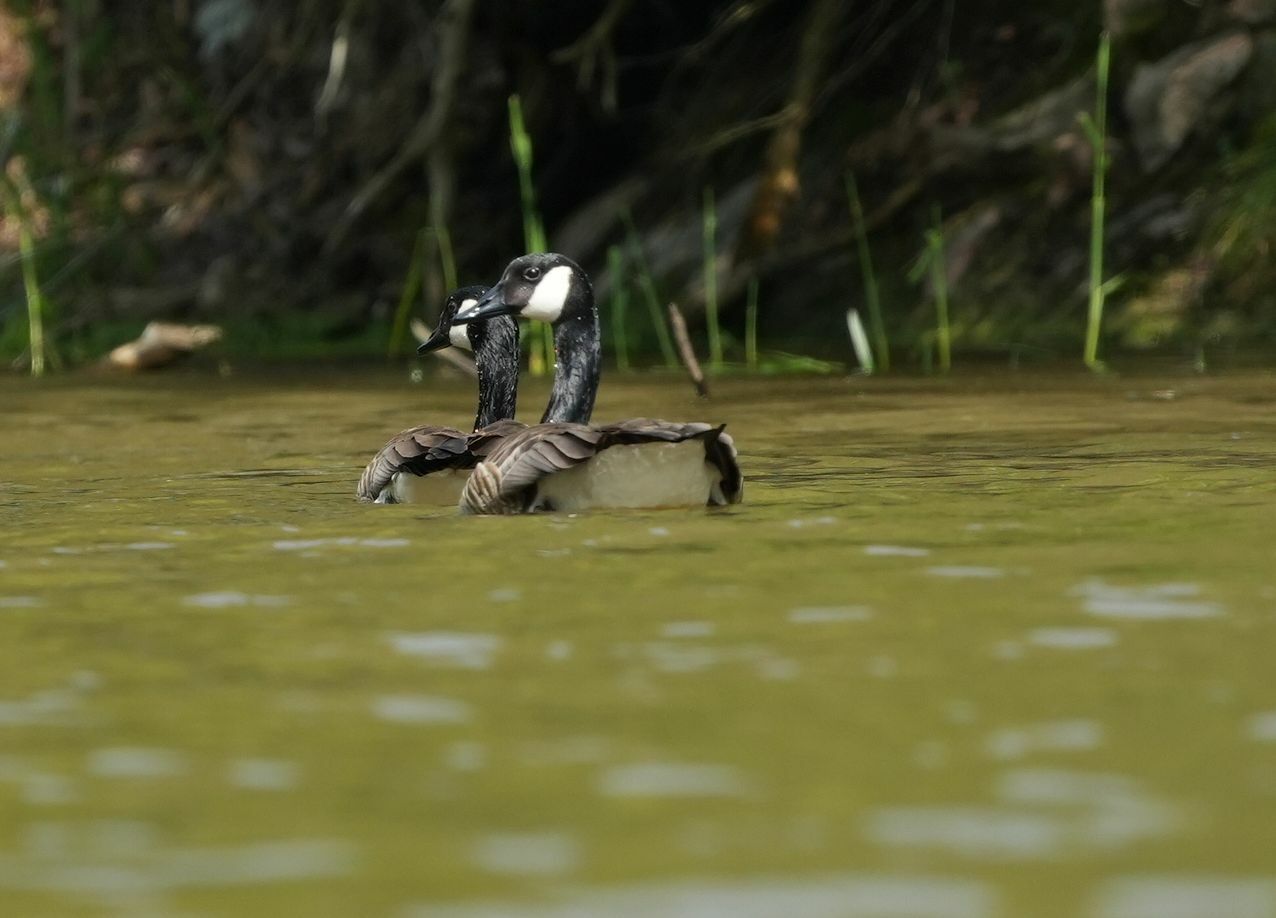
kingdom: Animalia
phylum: Chordata
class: Aves
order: Anseriformes
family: Anatidae
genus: Branta
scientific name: Branta canadensis
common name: Canada goose
